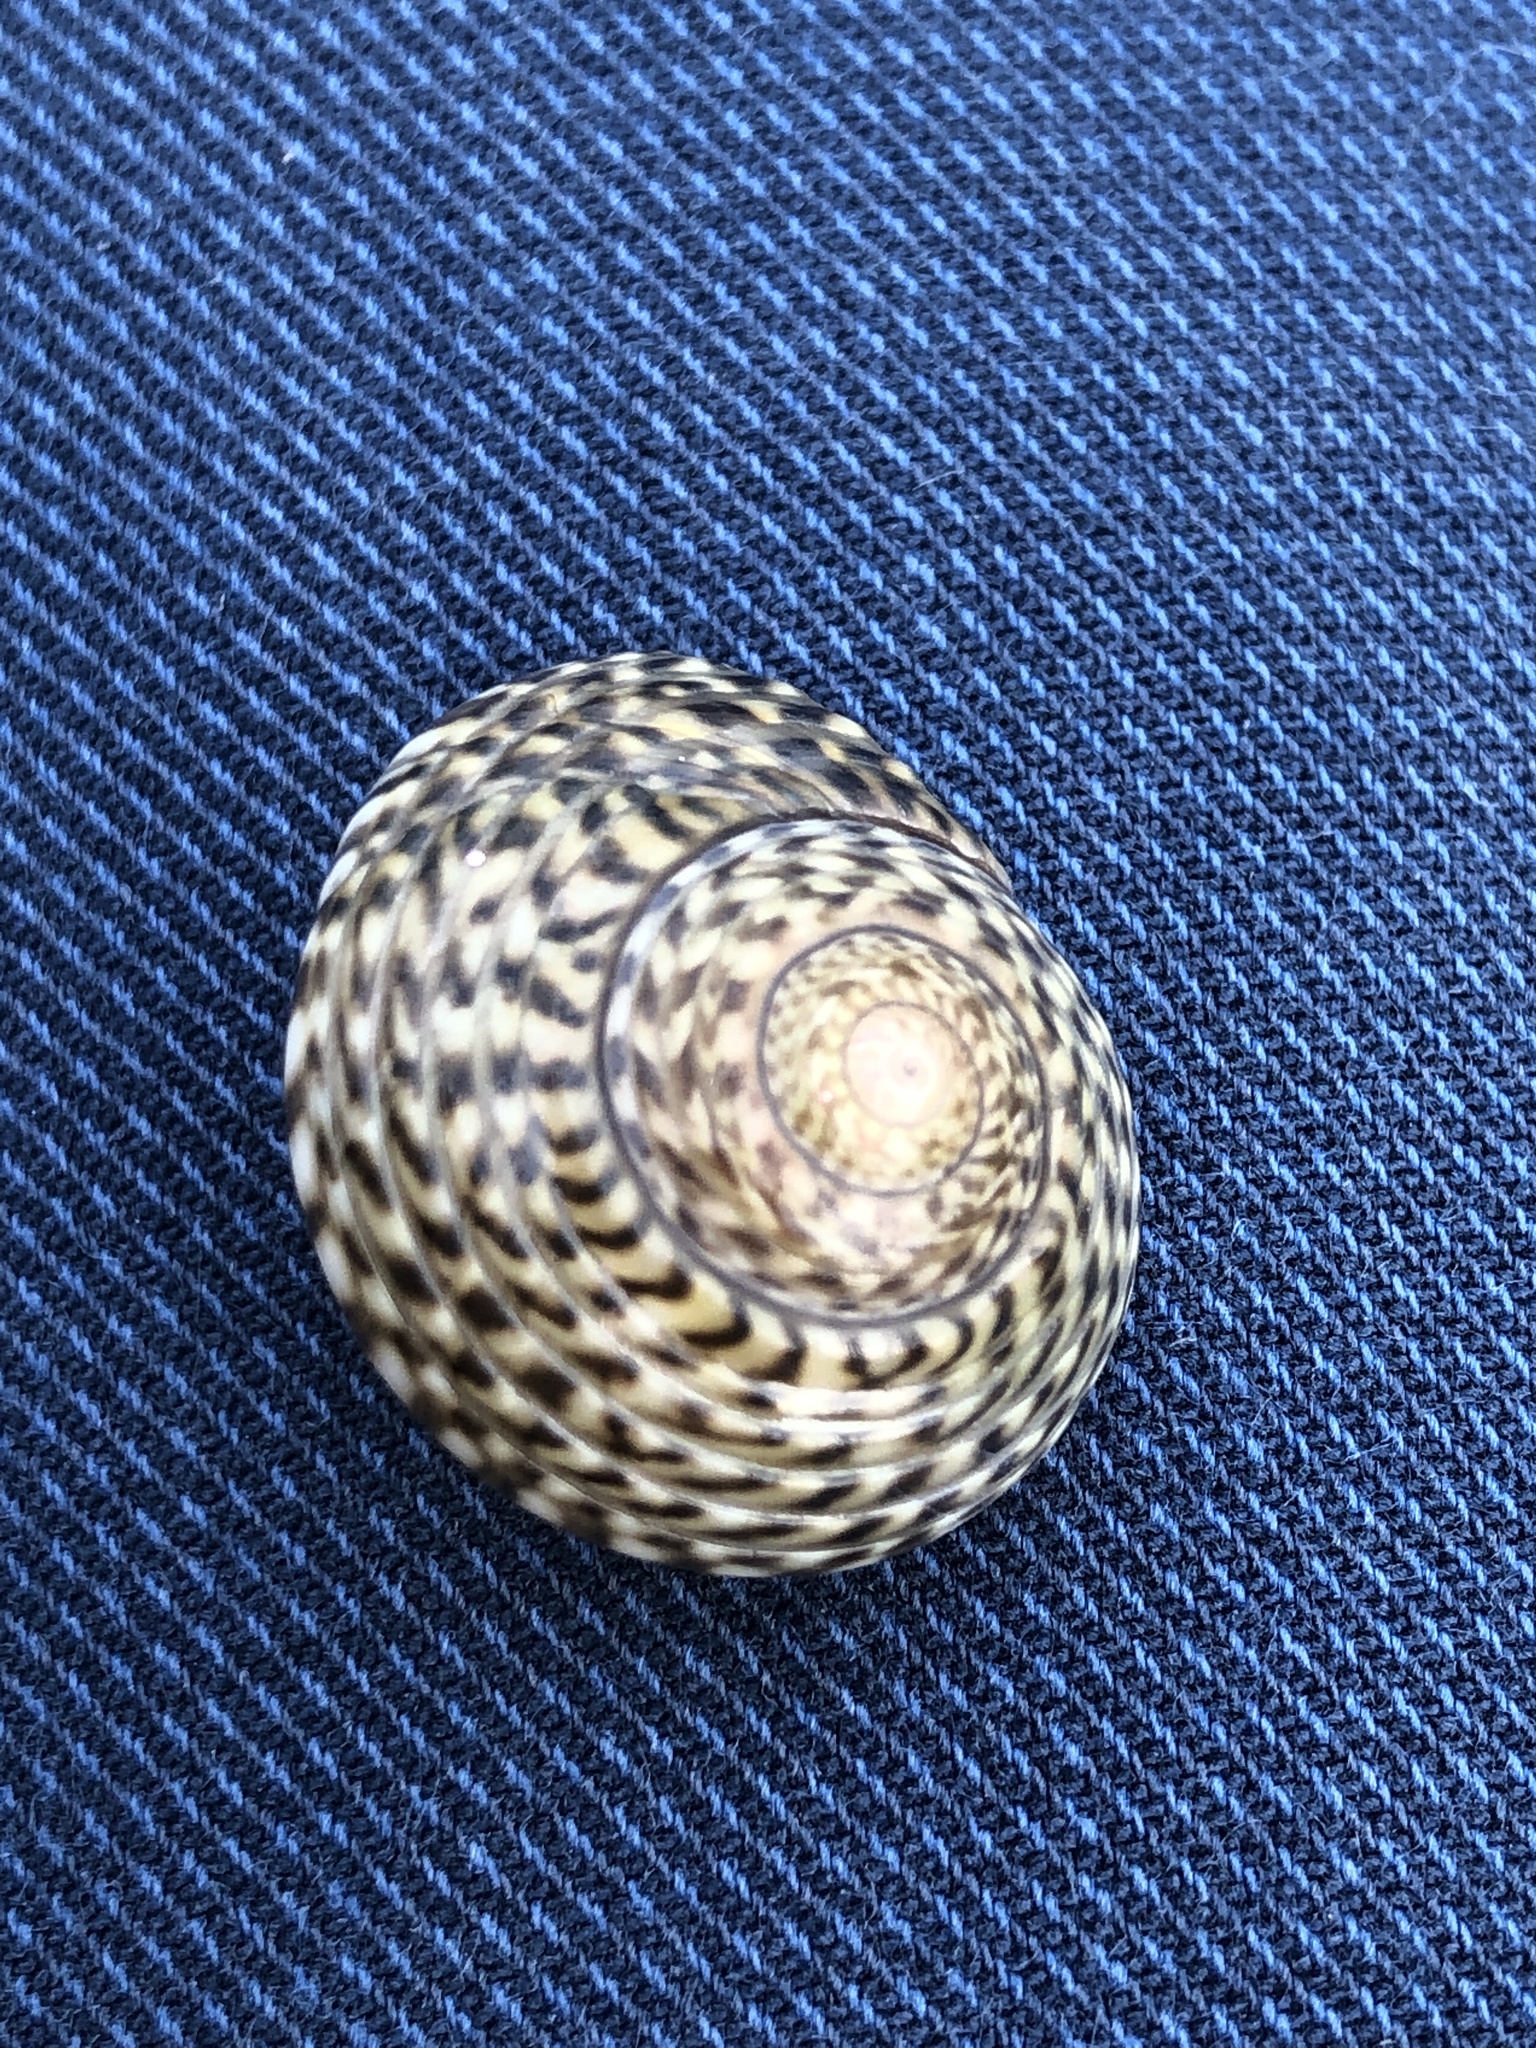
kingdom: Animalia
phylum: Mollusca
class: Gastropoda
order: Trochida
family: Trochidae
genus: Umbonium
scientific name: Umbonium costatum
